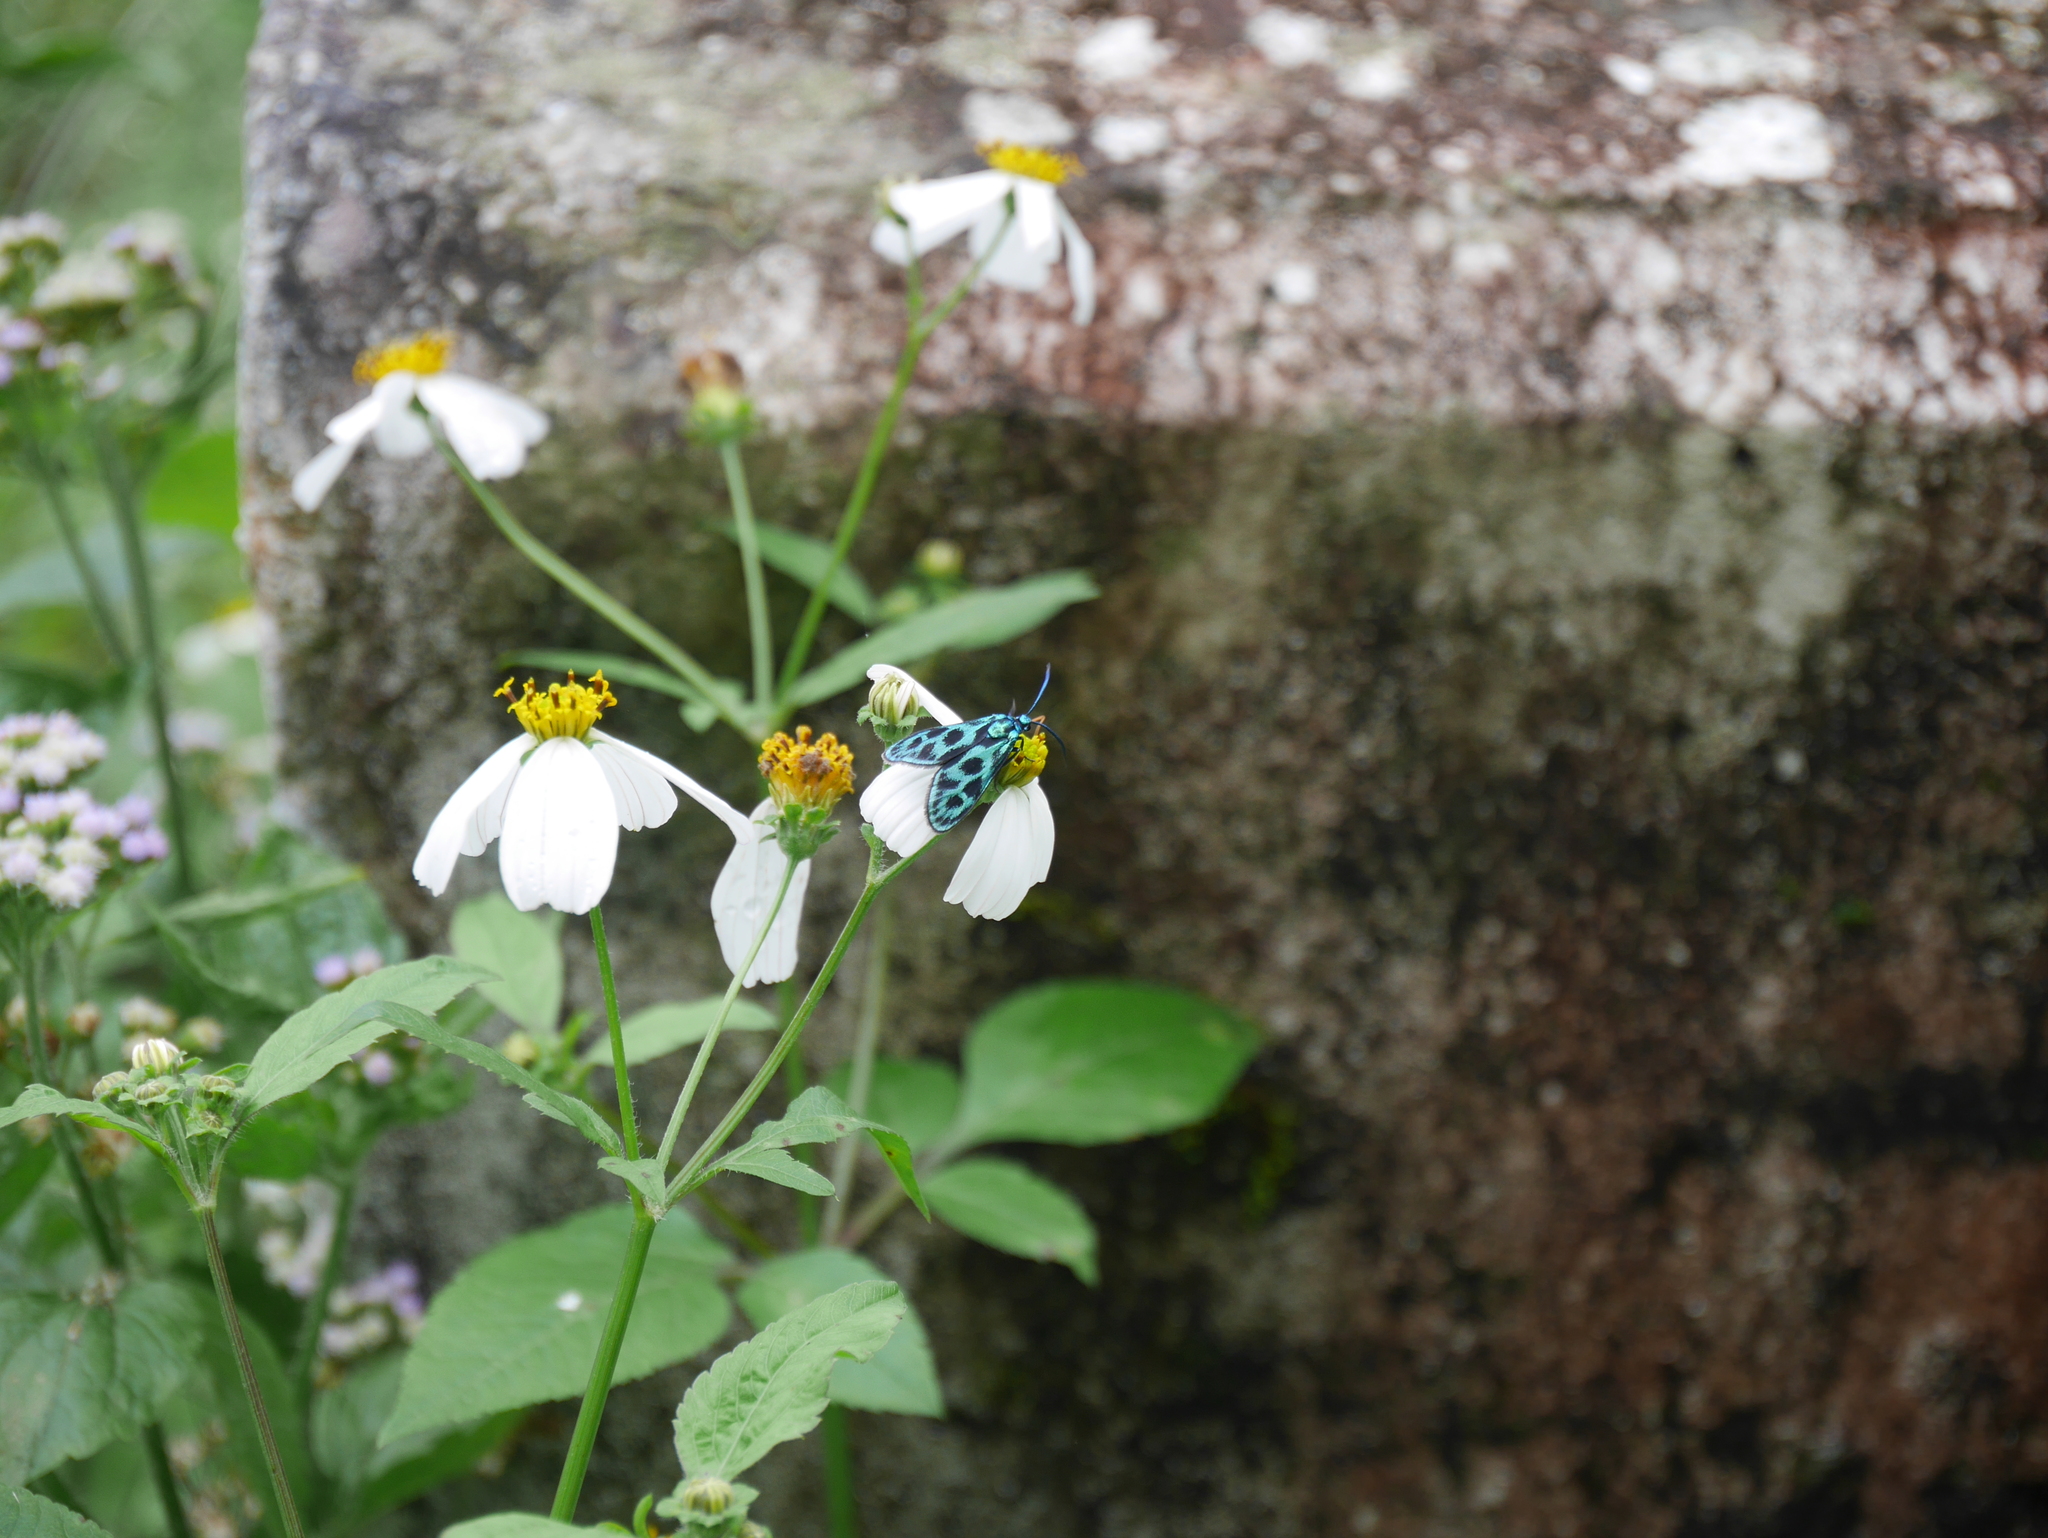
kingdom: Animalia
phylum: Arthropoda
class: Insecta
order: Lepidoptera
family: Zygaenidae
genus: Clelea
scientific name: Clelea nigroviridis
